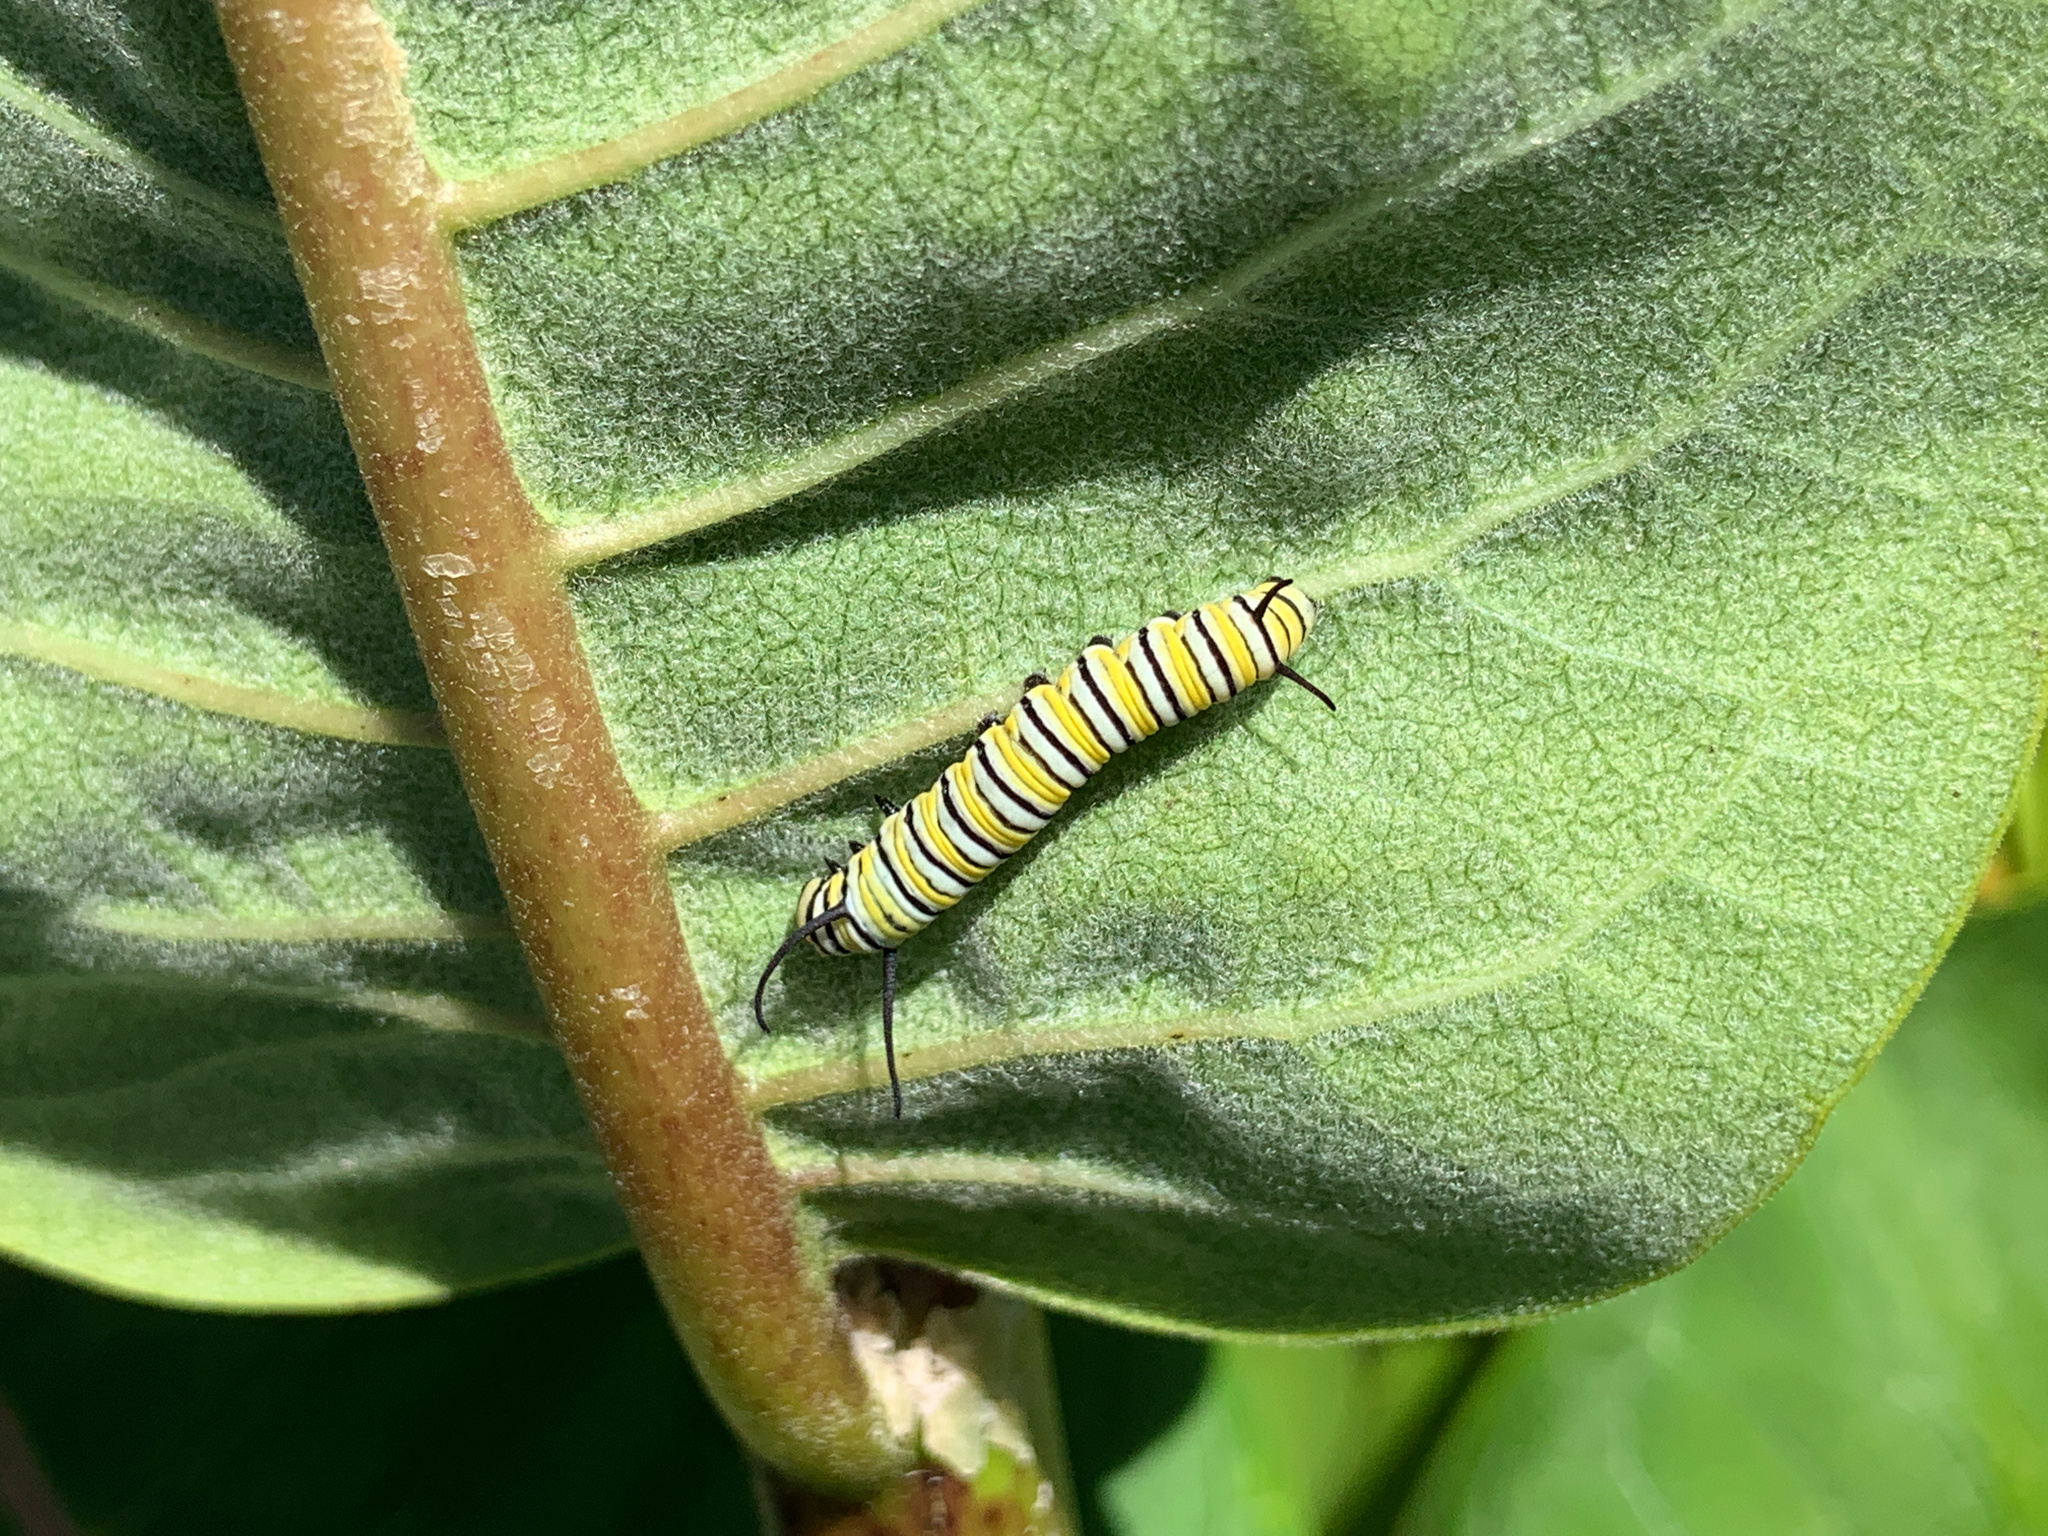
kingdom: Animalia
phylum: Arthropoda
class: Insecta
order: Lepidoptera
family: Nymphalidae
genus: Danaus
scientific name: Danaus plexippus
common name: Monarch
